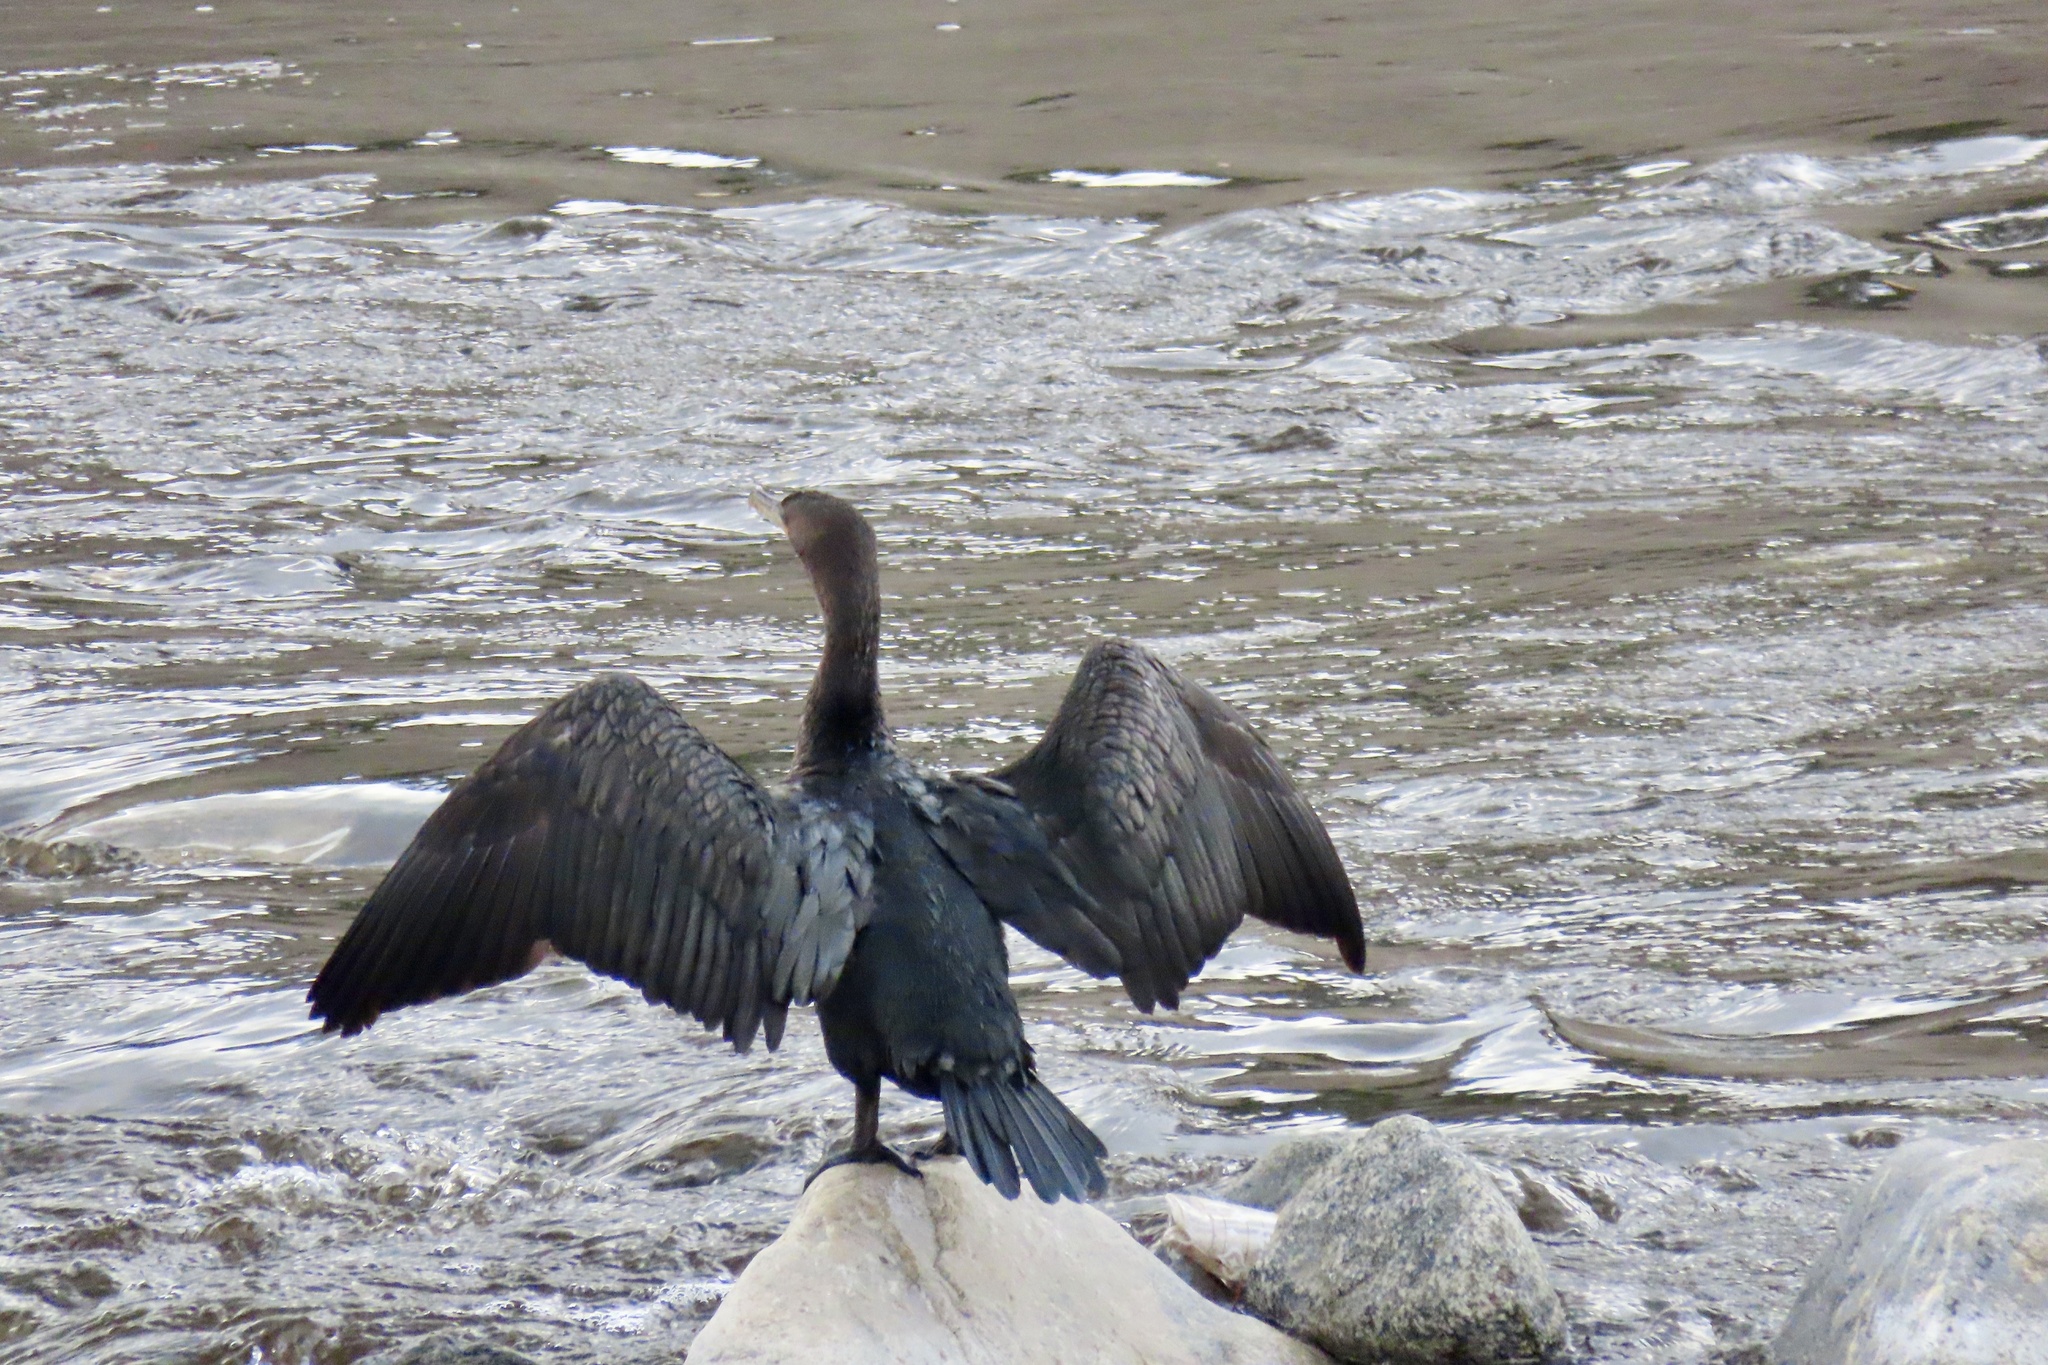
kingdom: Animalia
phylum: Chordata
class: Aves
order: Suliformes
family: Phalacrocoracidae
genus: Phalacrocorax
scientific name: Phalacrocorax auritus
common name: Double-crested cormorant
